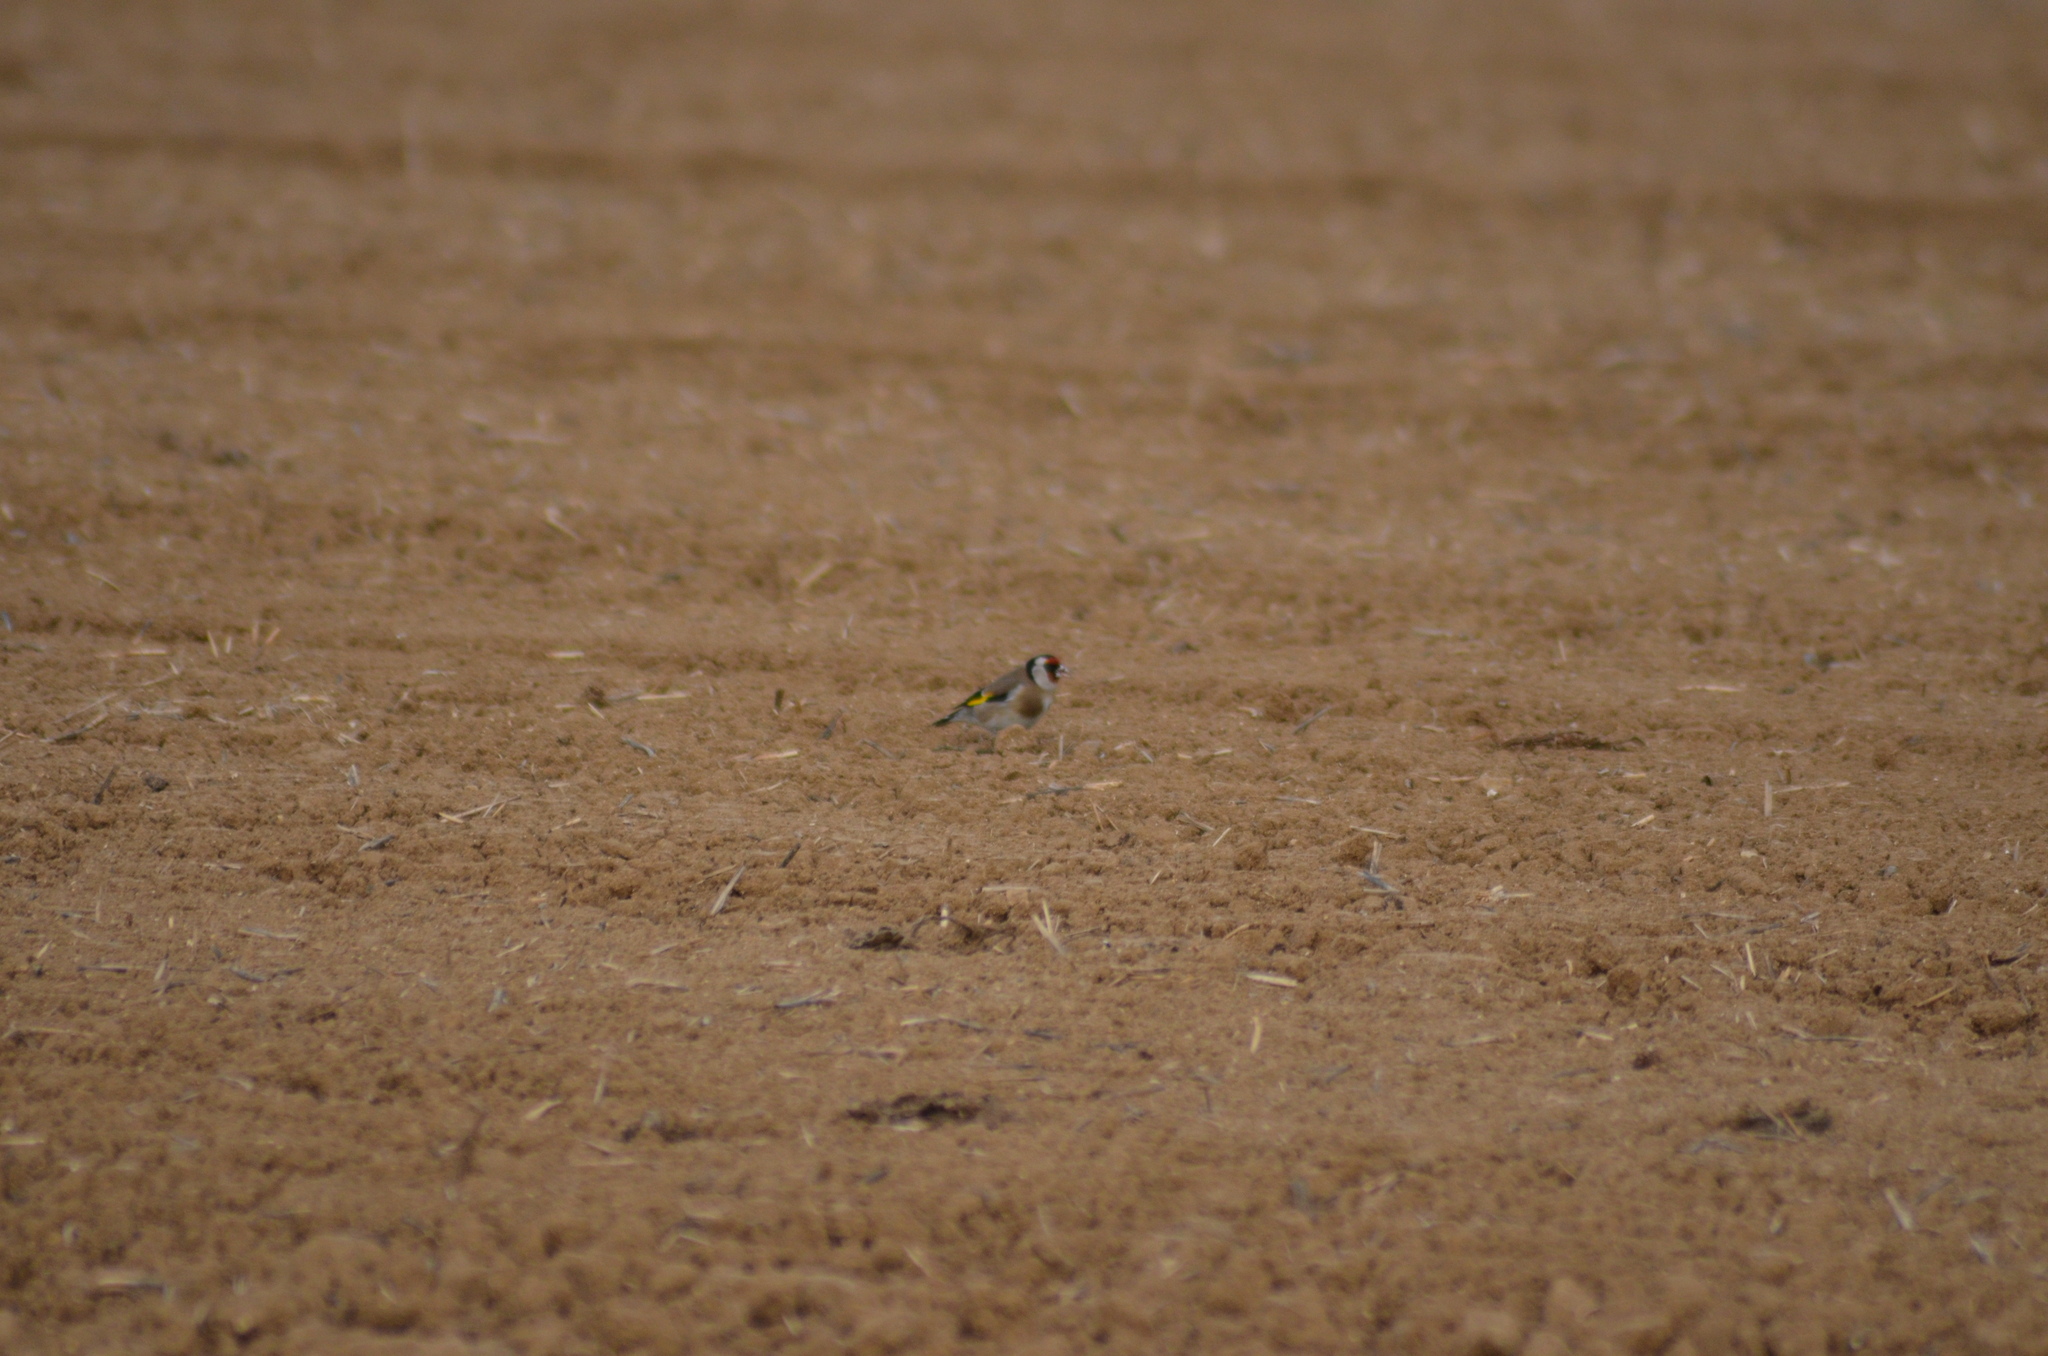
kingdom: Animalia
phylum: Chordata
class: Aves
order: Passeriformes
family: Fringillidae
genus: Carduelis
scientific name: Carduelis carduelis
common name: European goldfinch
